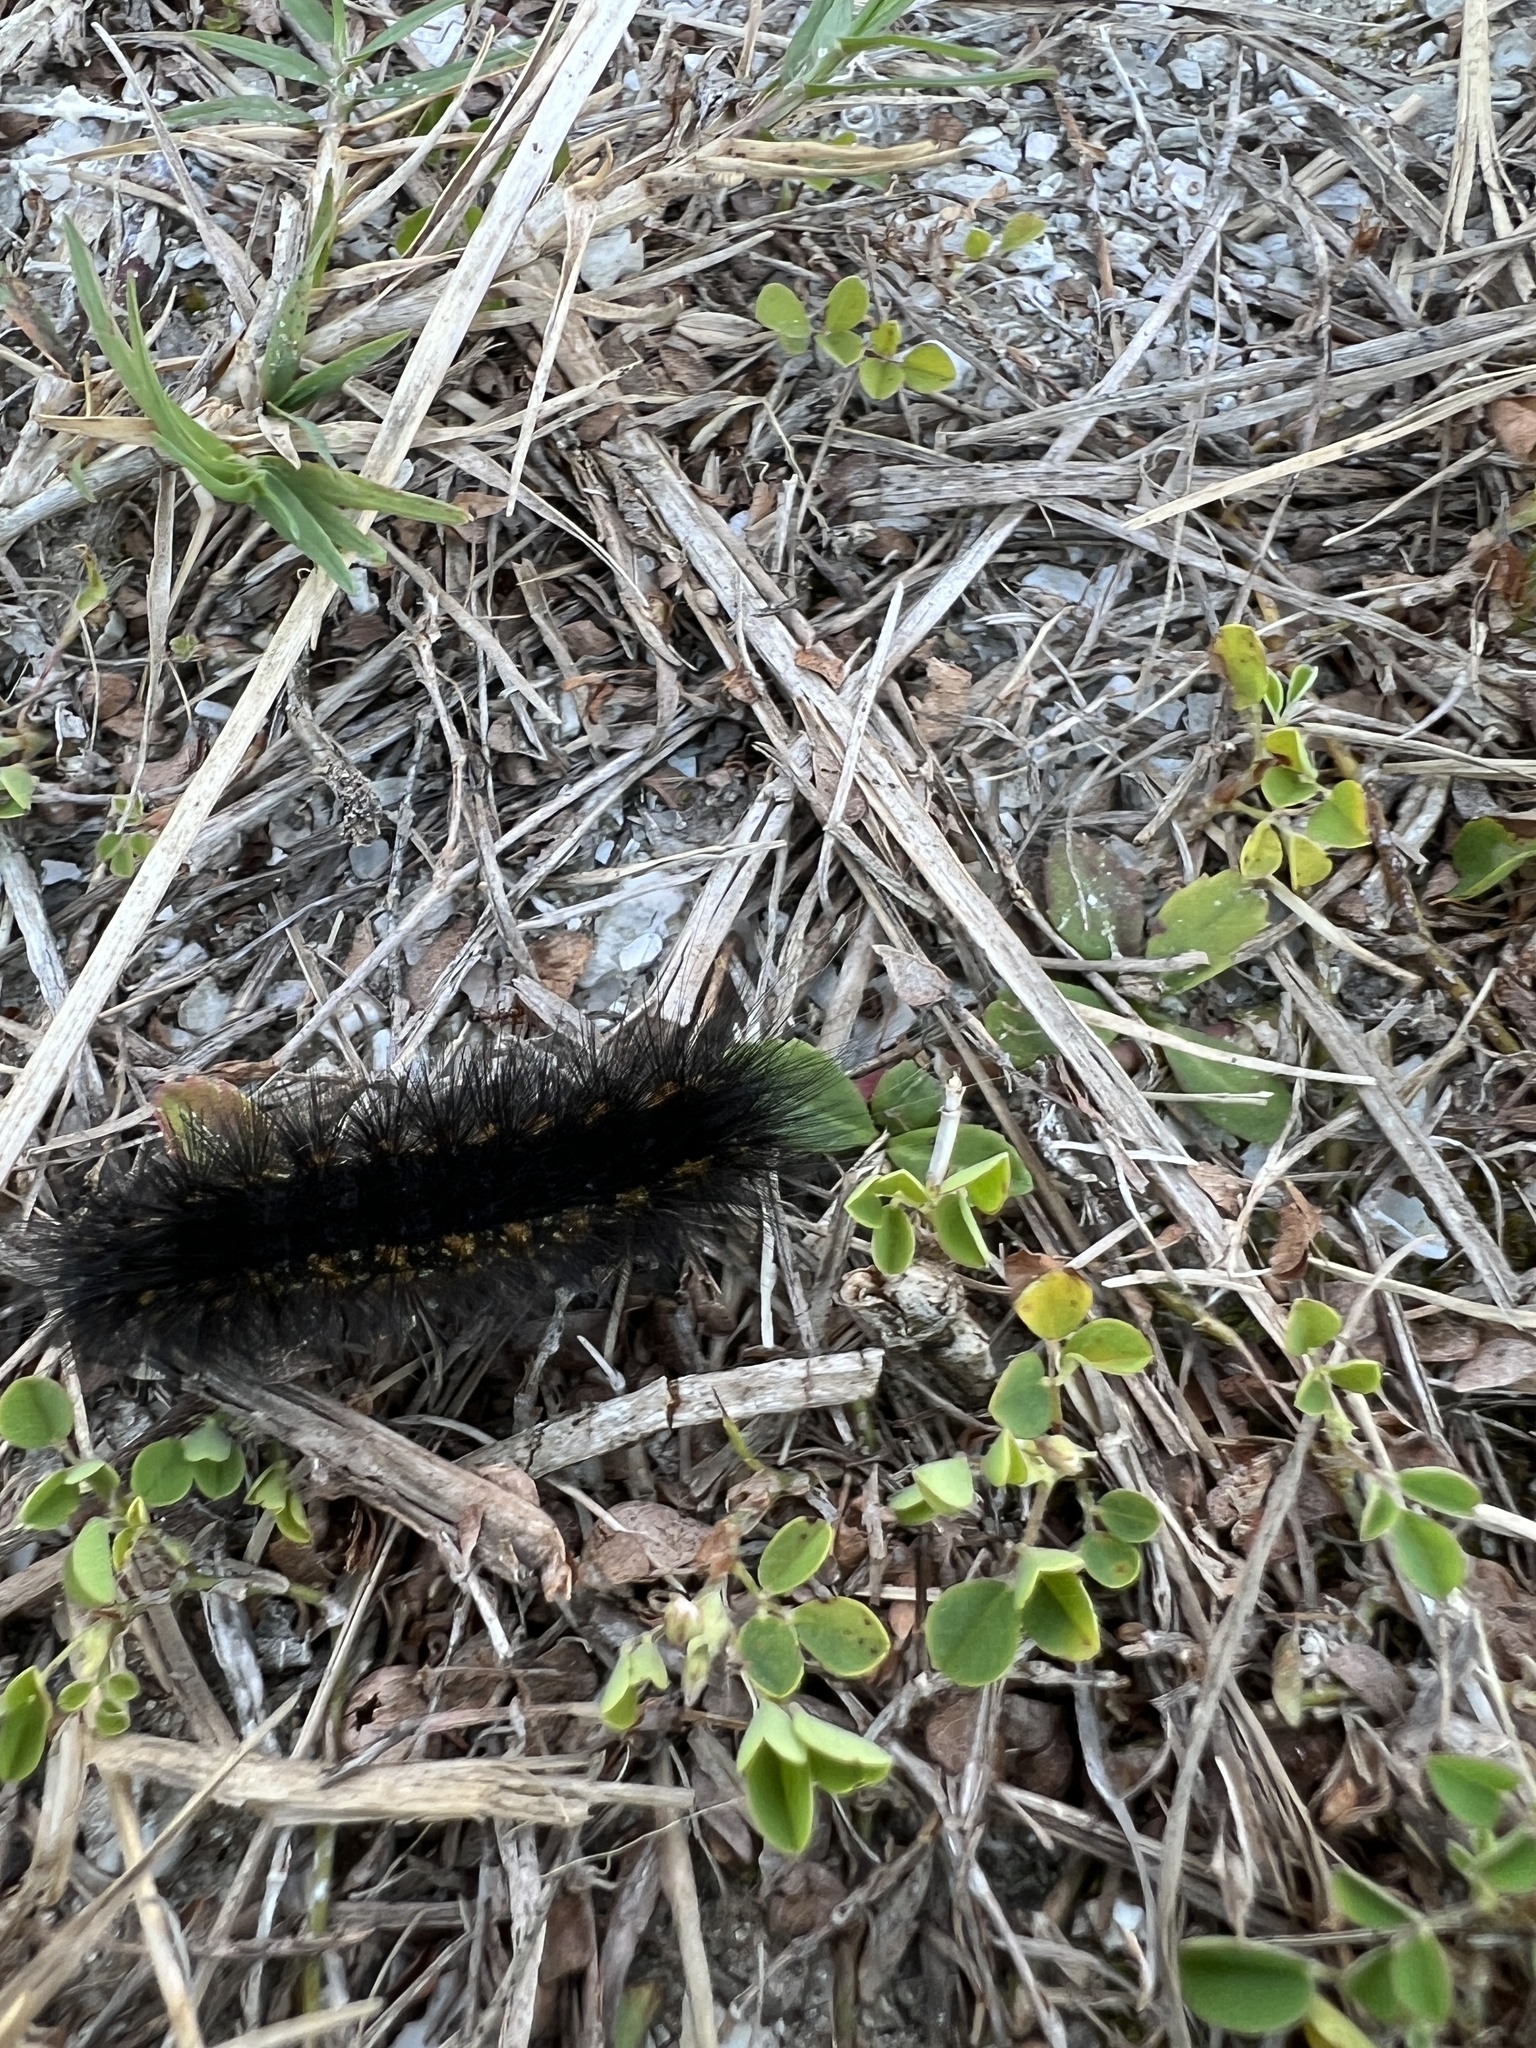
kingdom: Animalia
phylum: Arthropoda
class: Insecta
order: Lepidoptera
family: Erebidae
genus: Estigmene
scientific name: Estigmene acrea
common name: Salt marsh moth
